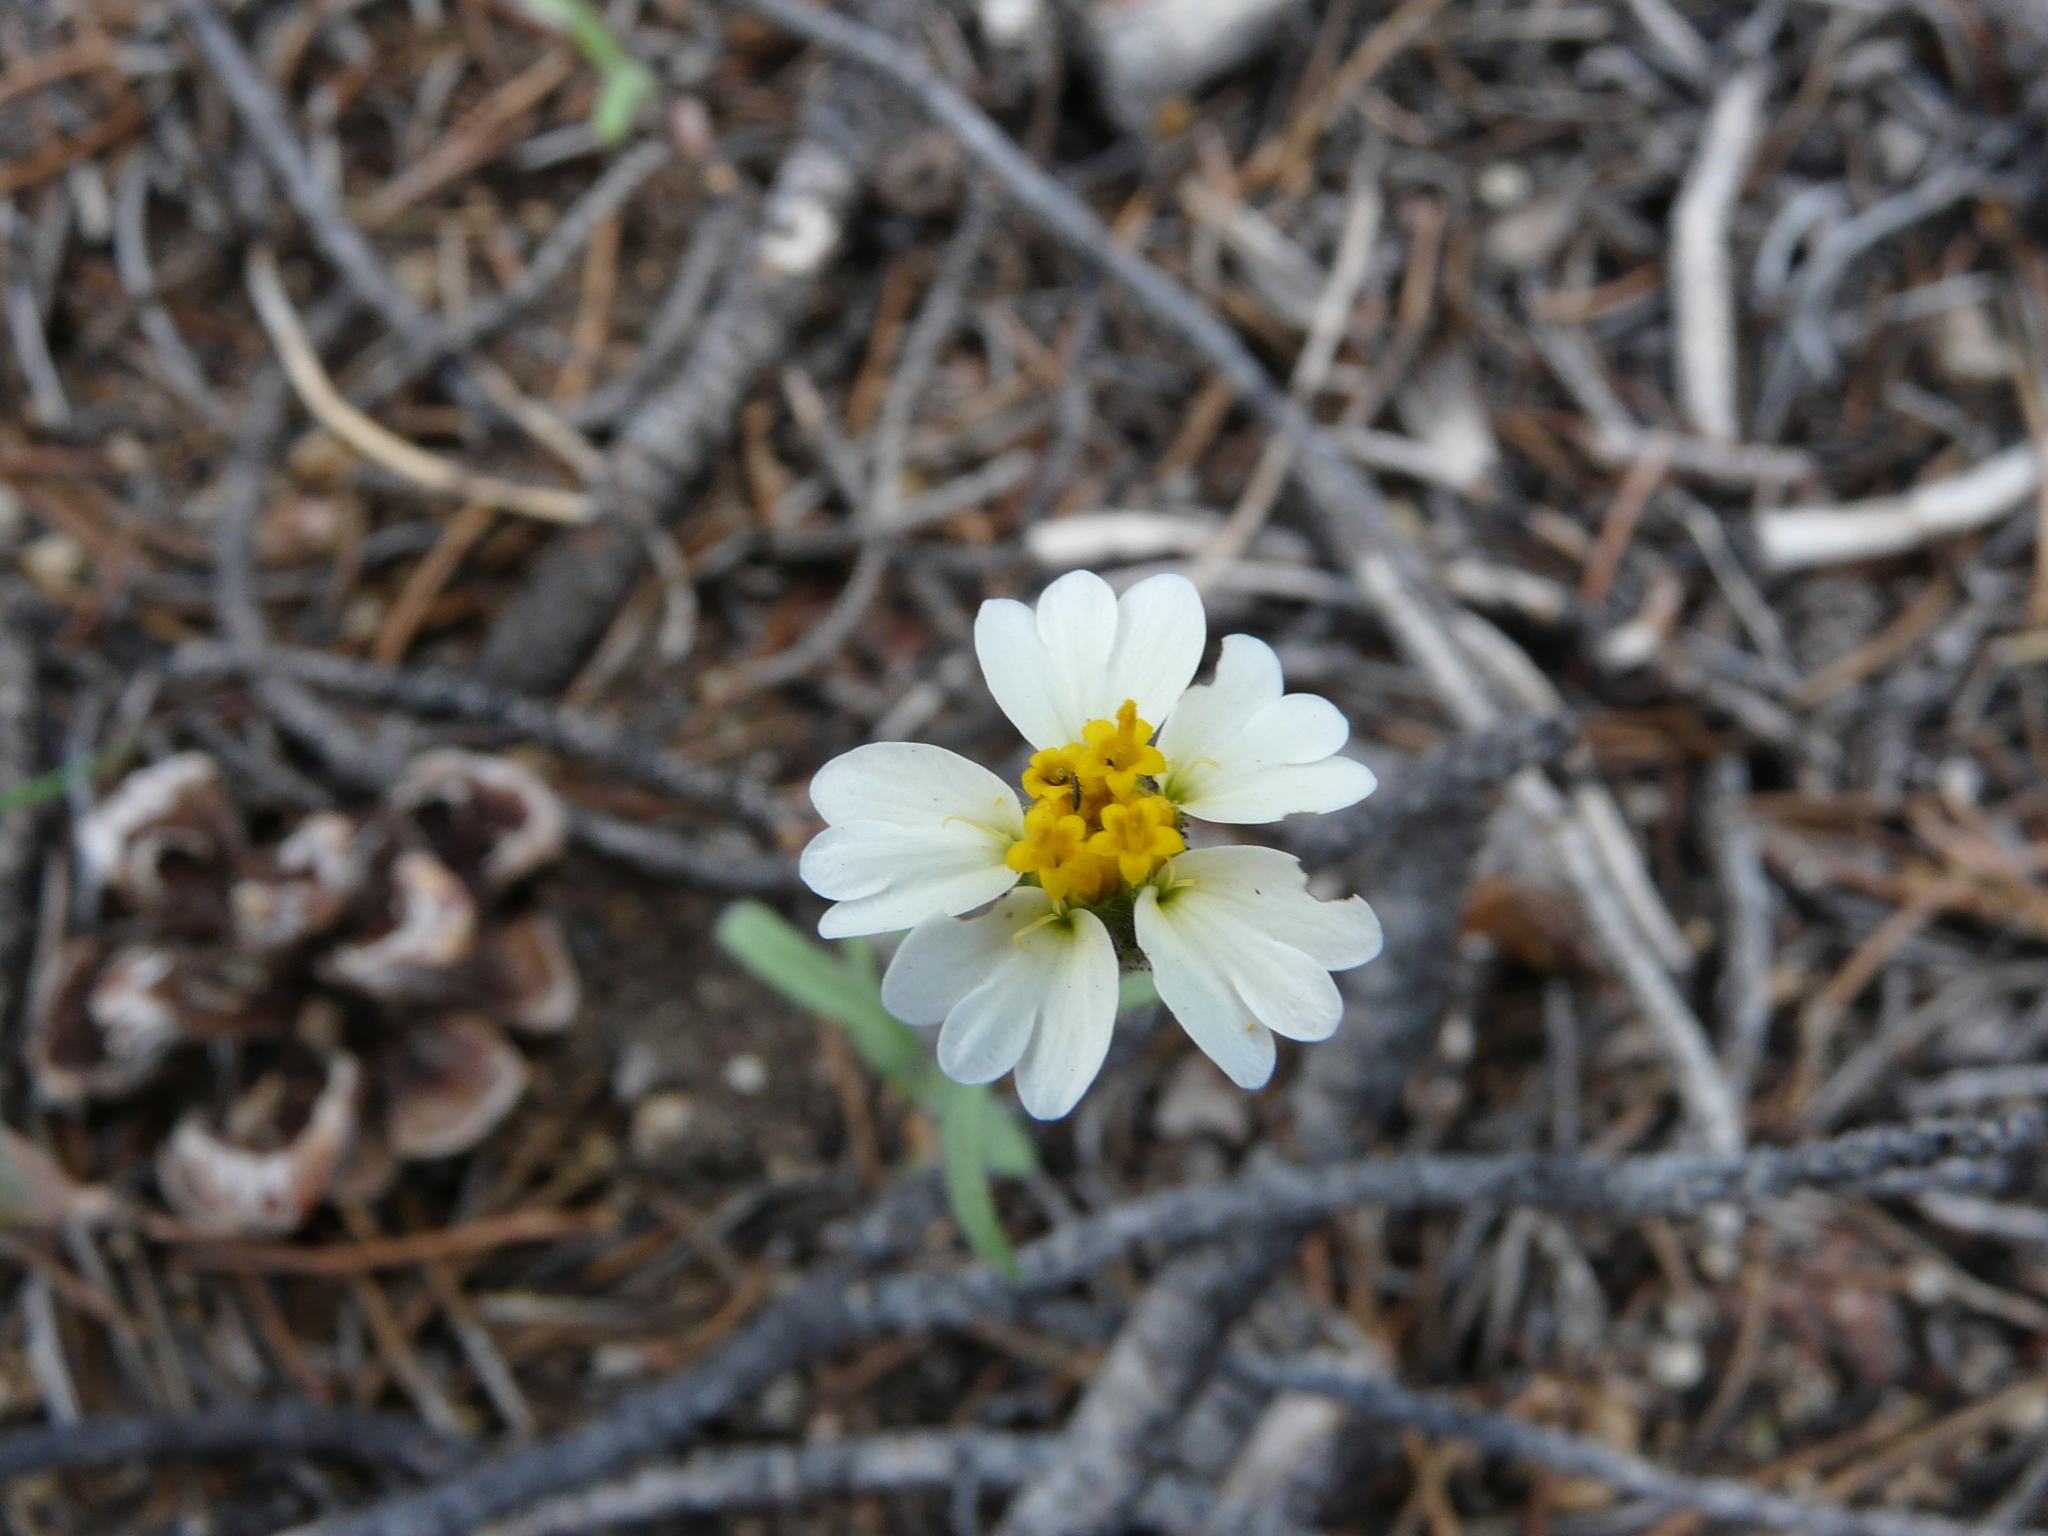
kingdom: Plantae
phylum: Tracheophyta
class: Magnoliopsida
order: Asterales
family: Asteraceae
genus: Layia
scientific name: Layia glandulosa
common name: White layia
